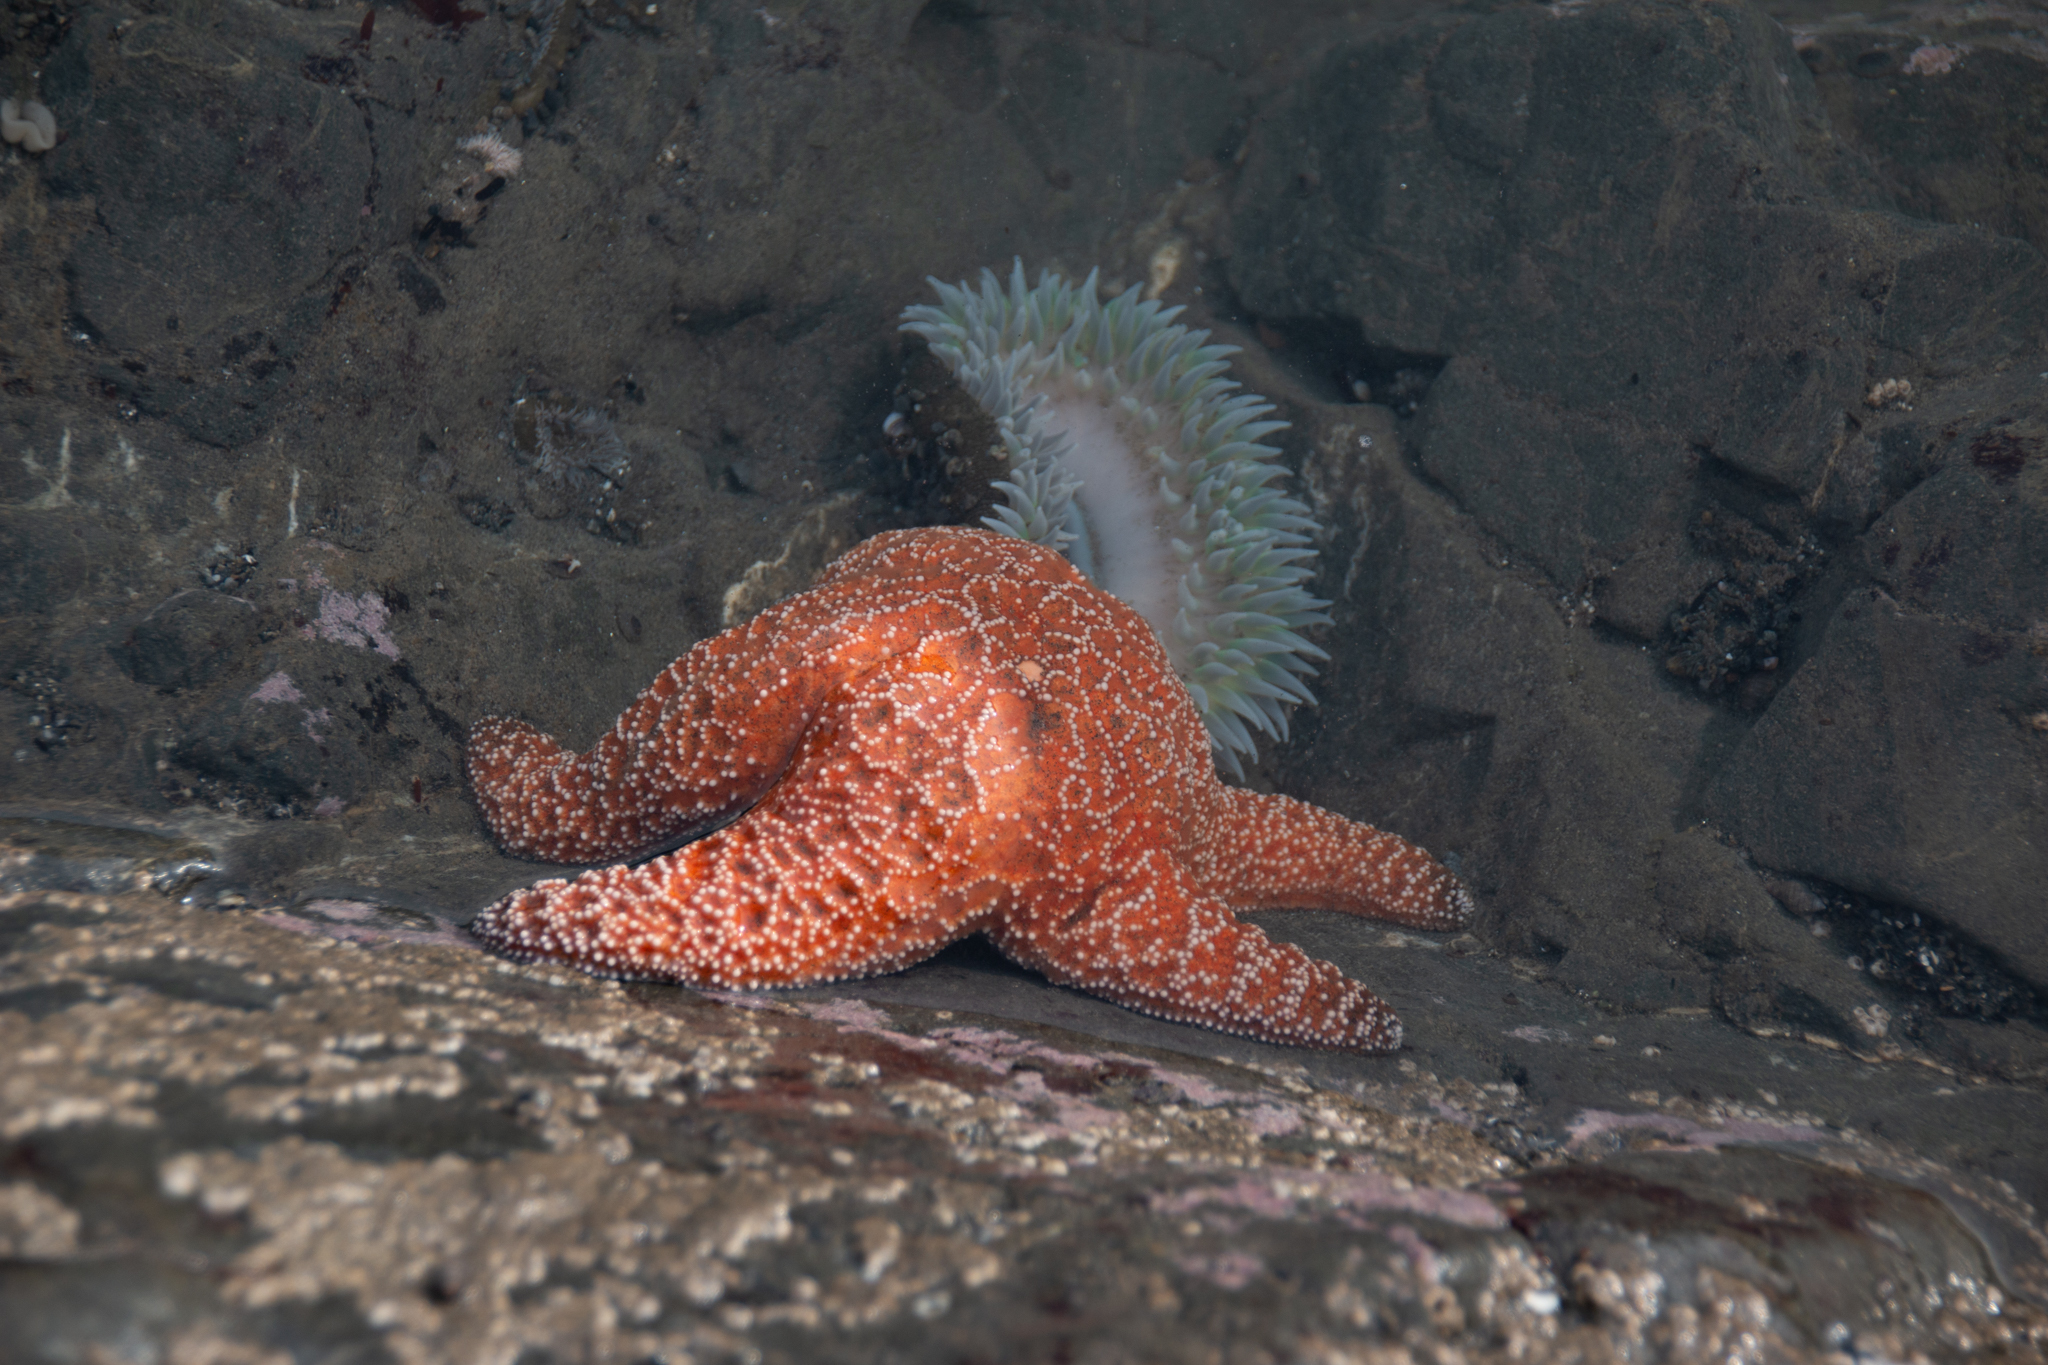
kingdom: Animalia
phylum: Echinodermata
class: Asteroidea
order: Forcipulatida
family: Asteriidae
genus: Pisaster
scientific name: Pisaster ochraceus
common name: Ochre stars
